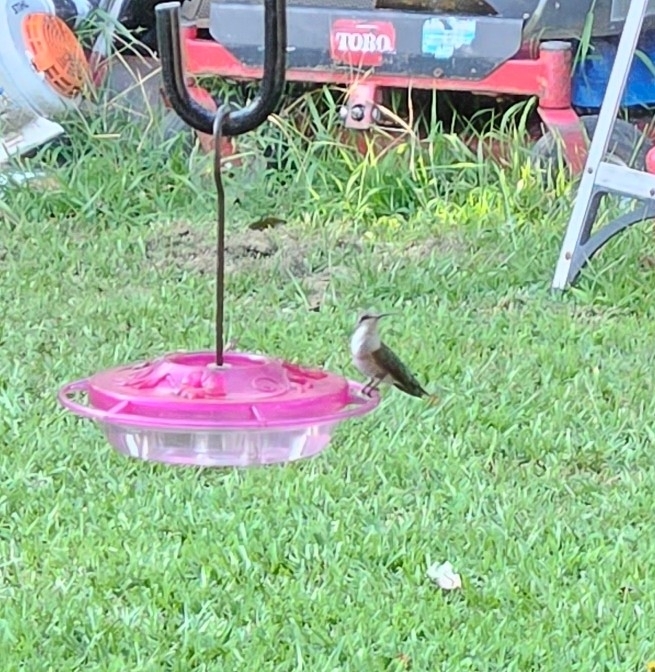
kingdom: Animalia
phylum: Chordata
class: Aves
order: Apodiformes
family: Trochilidae
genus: Archilochus
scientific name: Archilochus colubris
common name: Ruby-throated hummingbird
